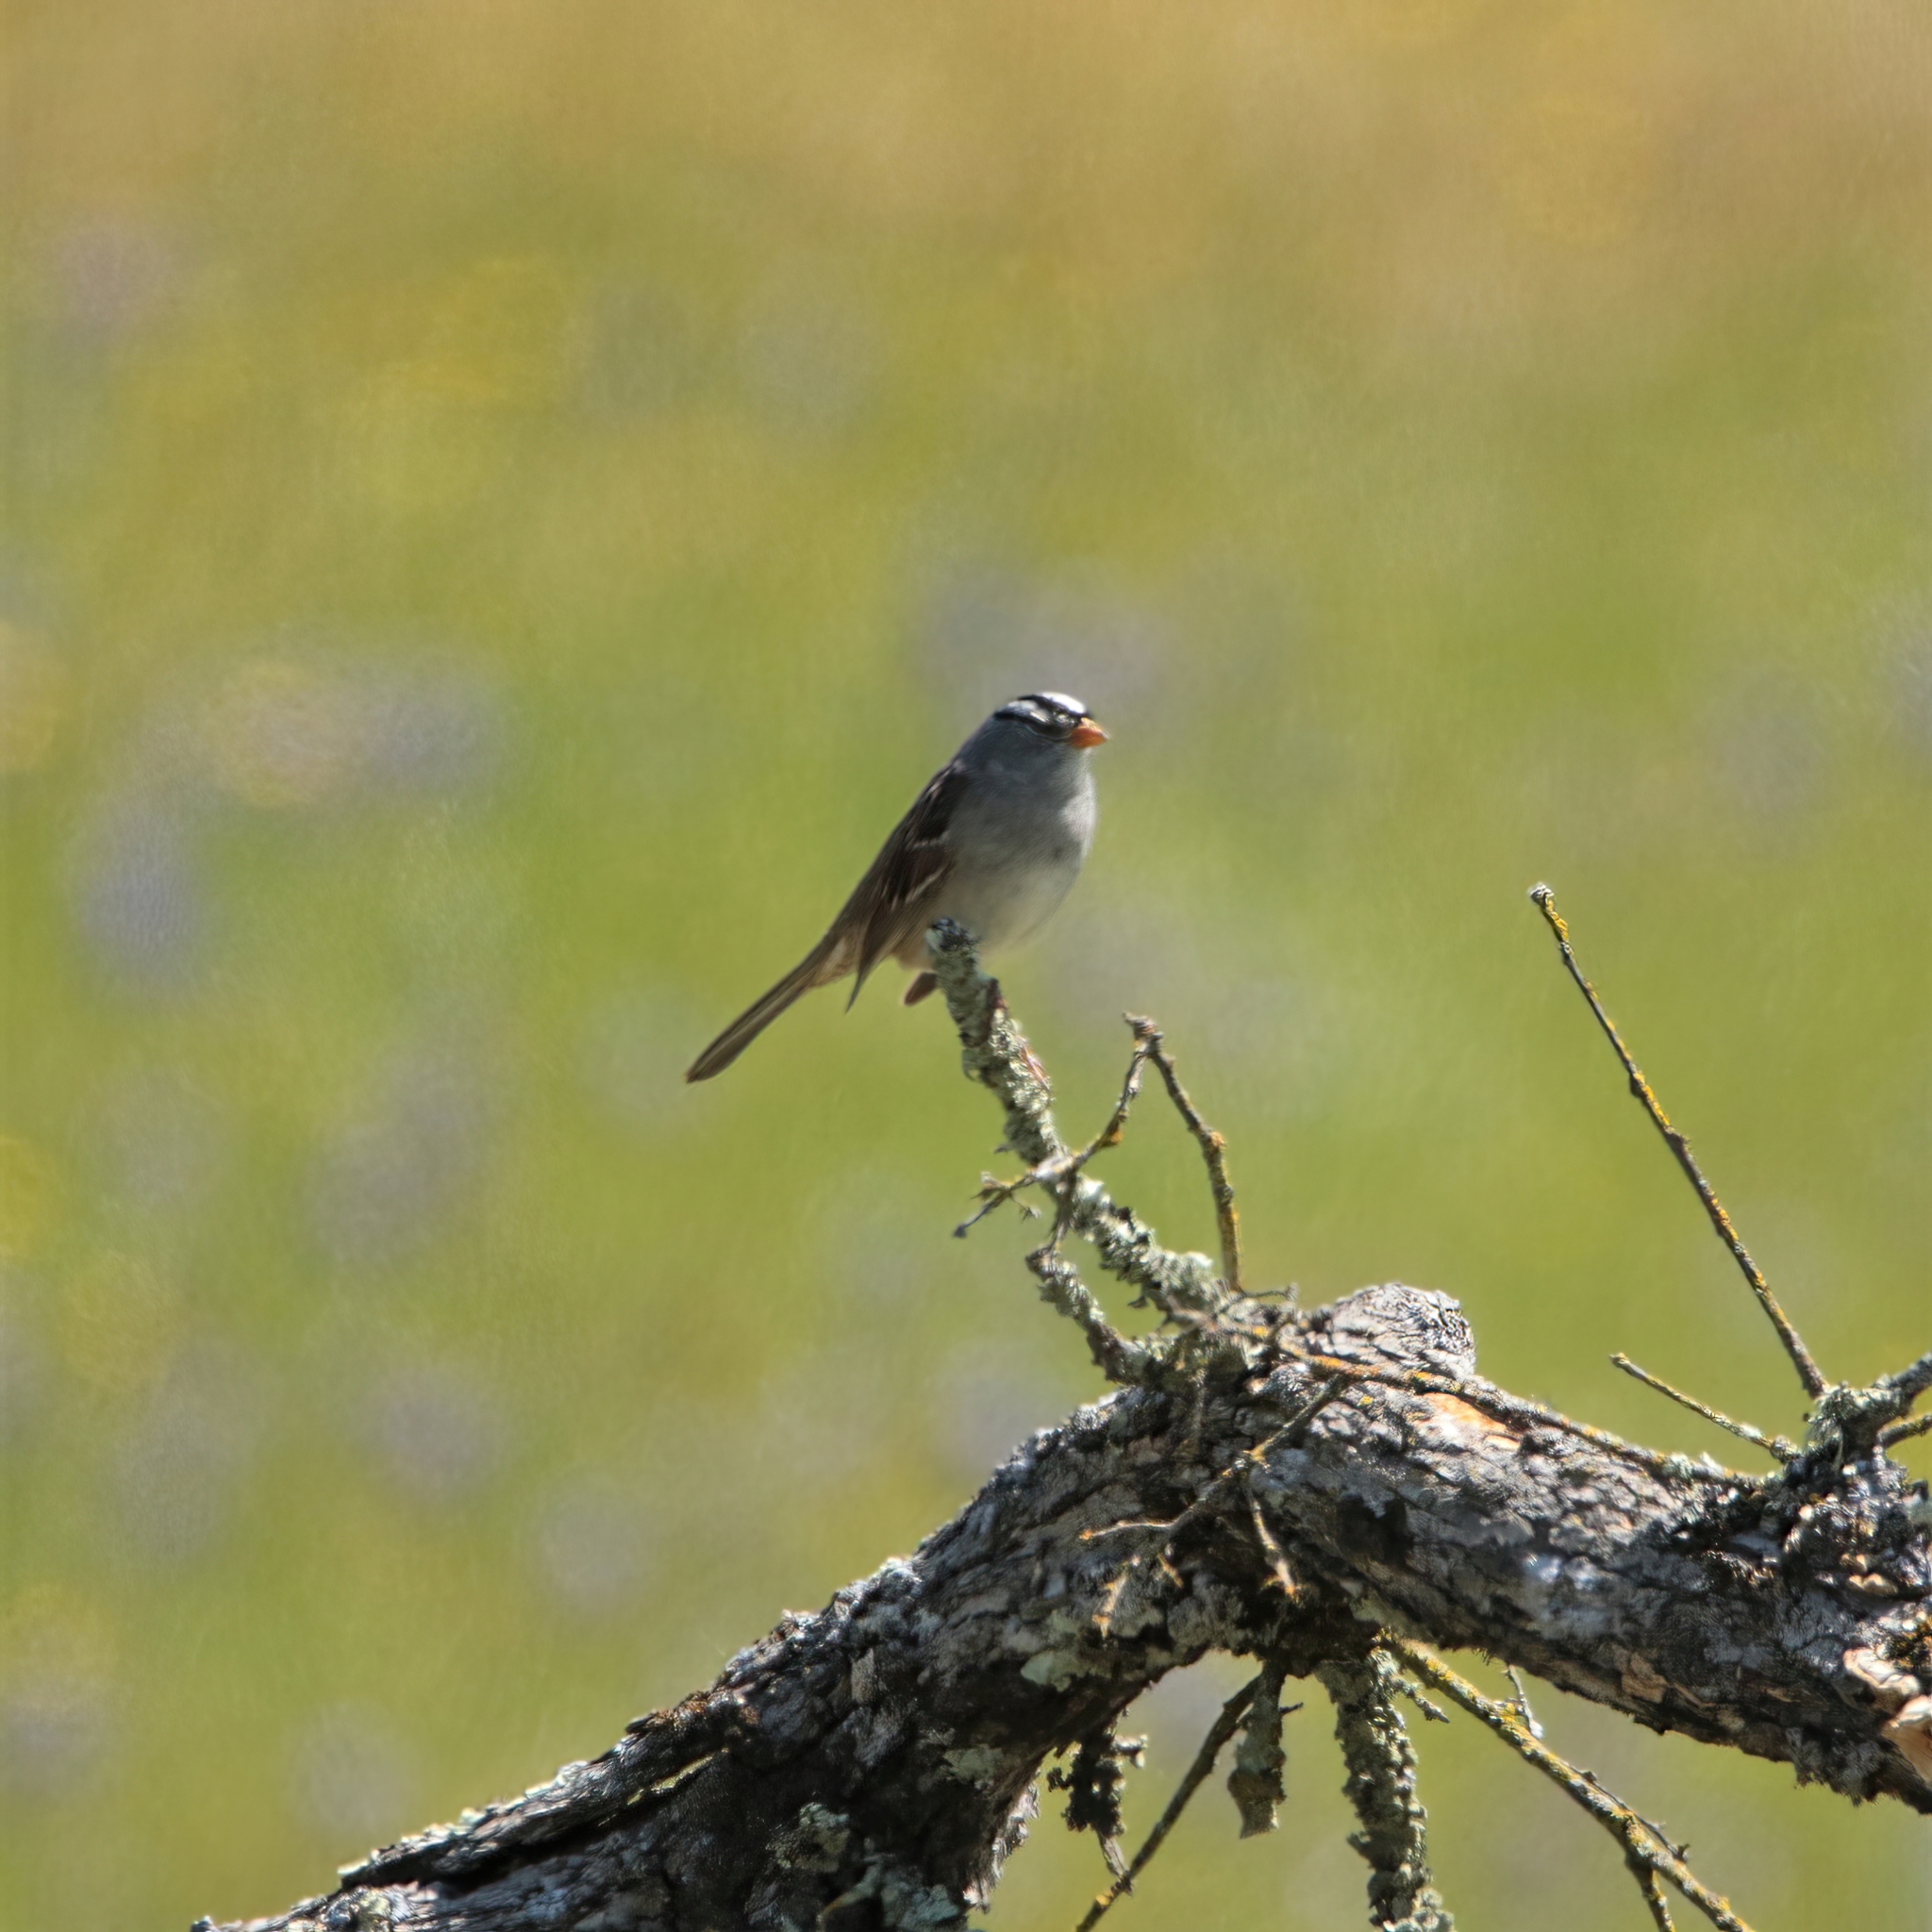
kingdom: Animalia
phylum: Chordata
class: Aves
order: Passeriformes
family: Passerellidae
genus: Zonotrichia
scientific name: Zonotrichia leucophrys
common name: White-crowned sparrow
